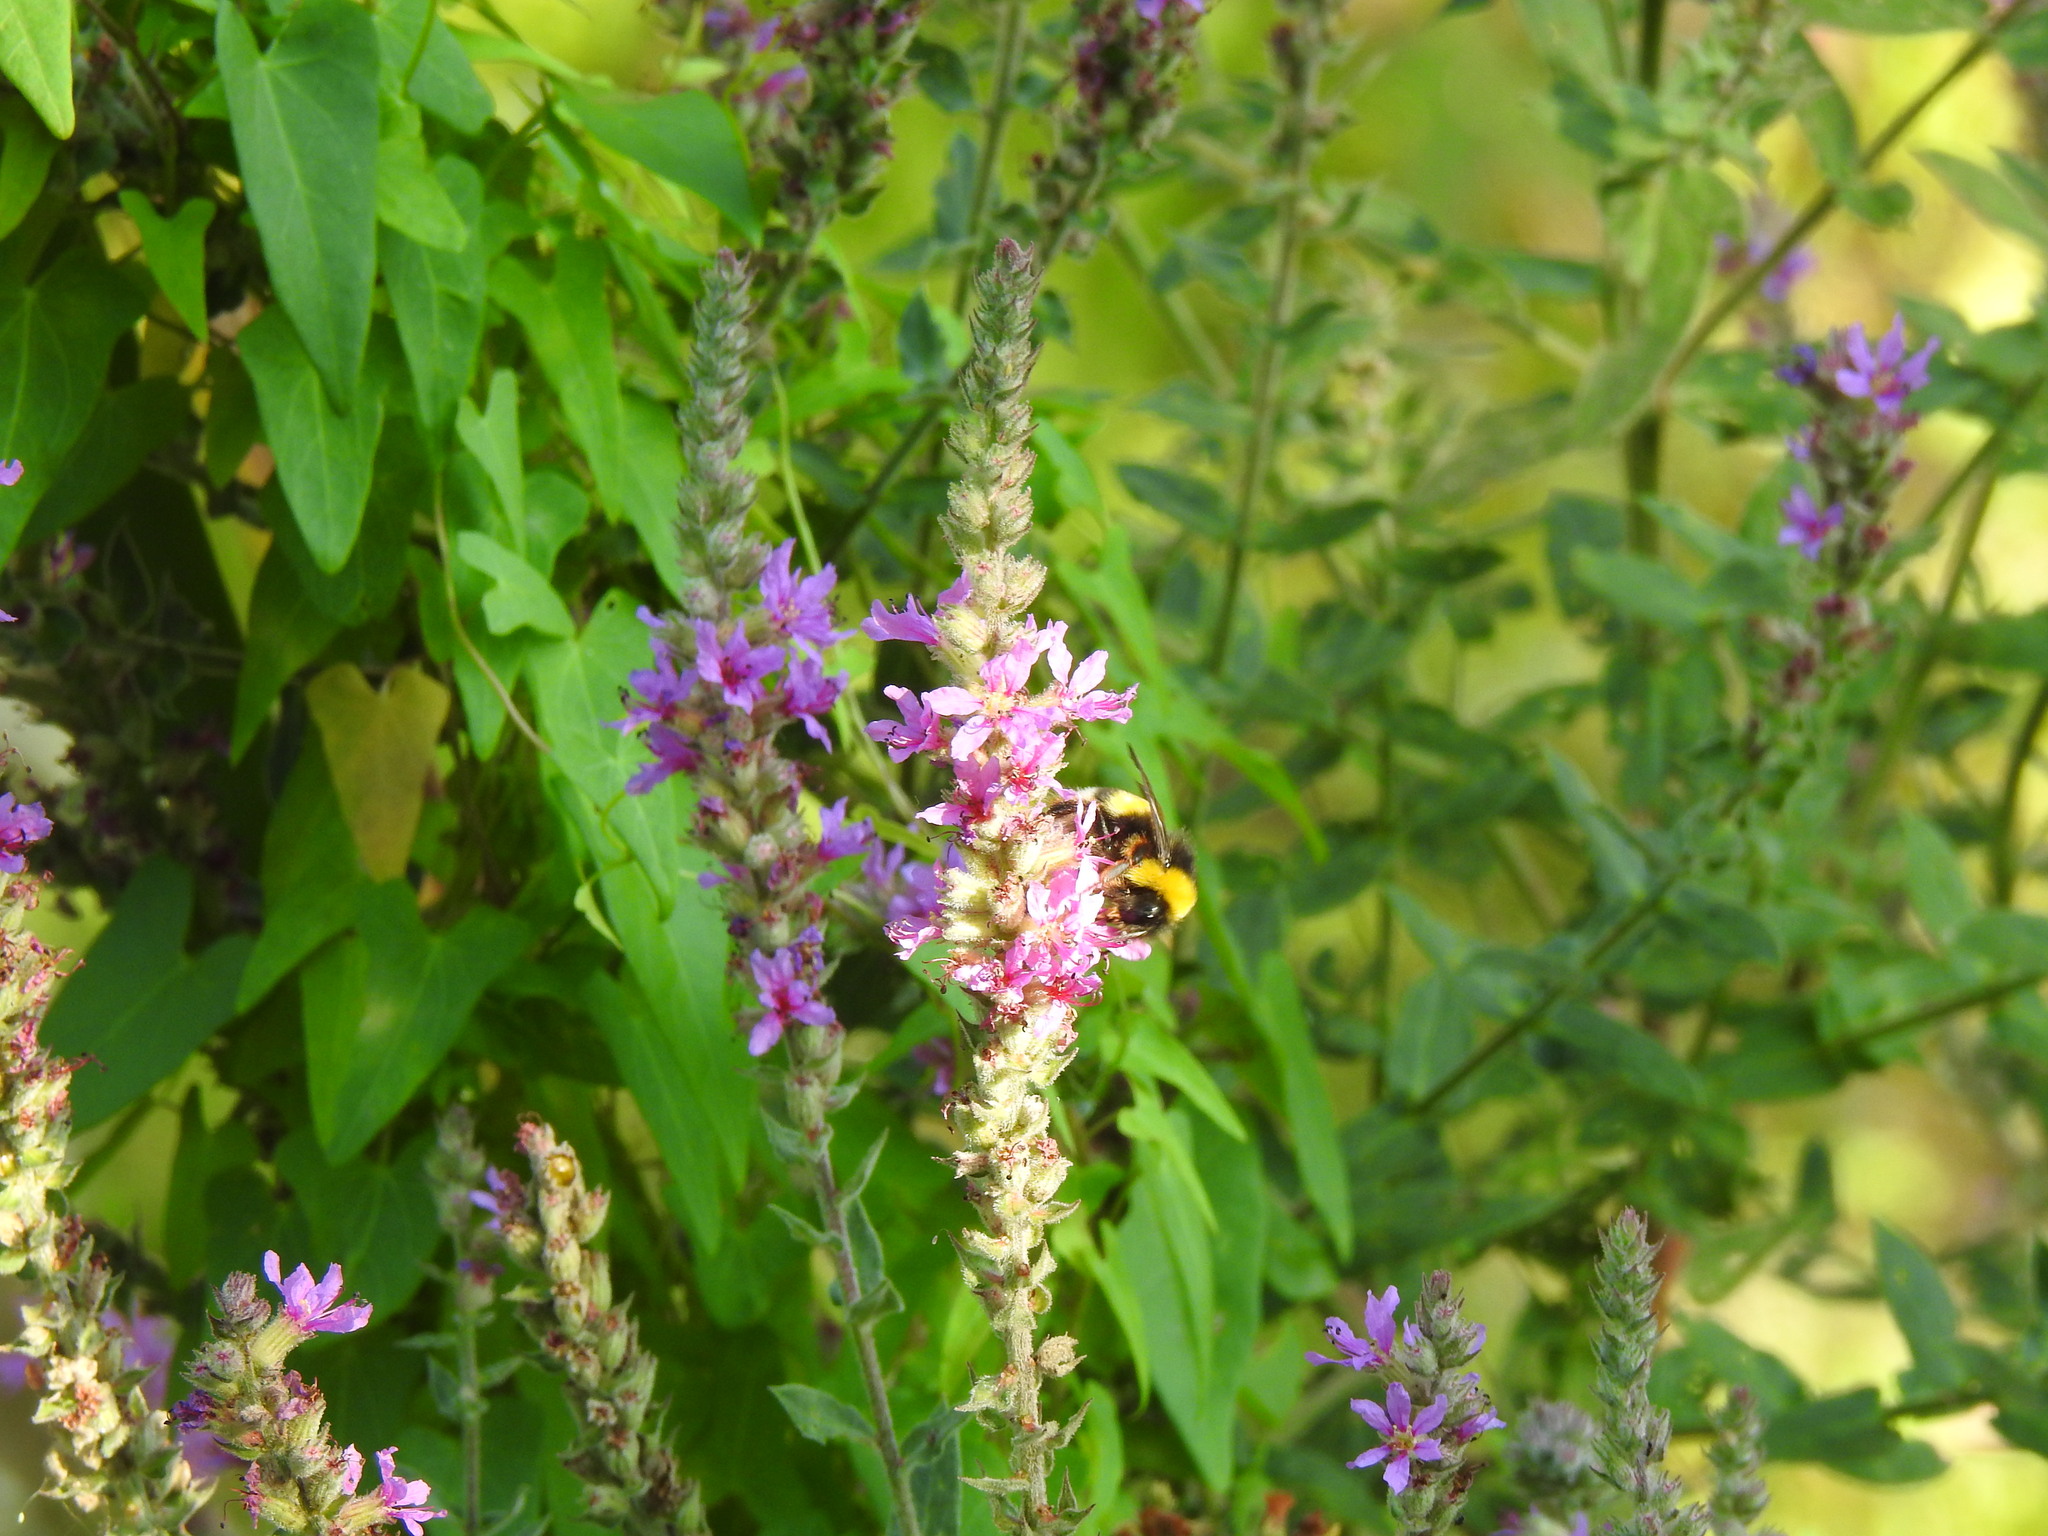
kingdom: Plantae
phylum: Tracheophyta
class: Magnoliopsida
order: Myrtales
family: Lythraceae
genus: Lythrum
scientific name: Lythrum salicaria
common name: Purple loosestrife
